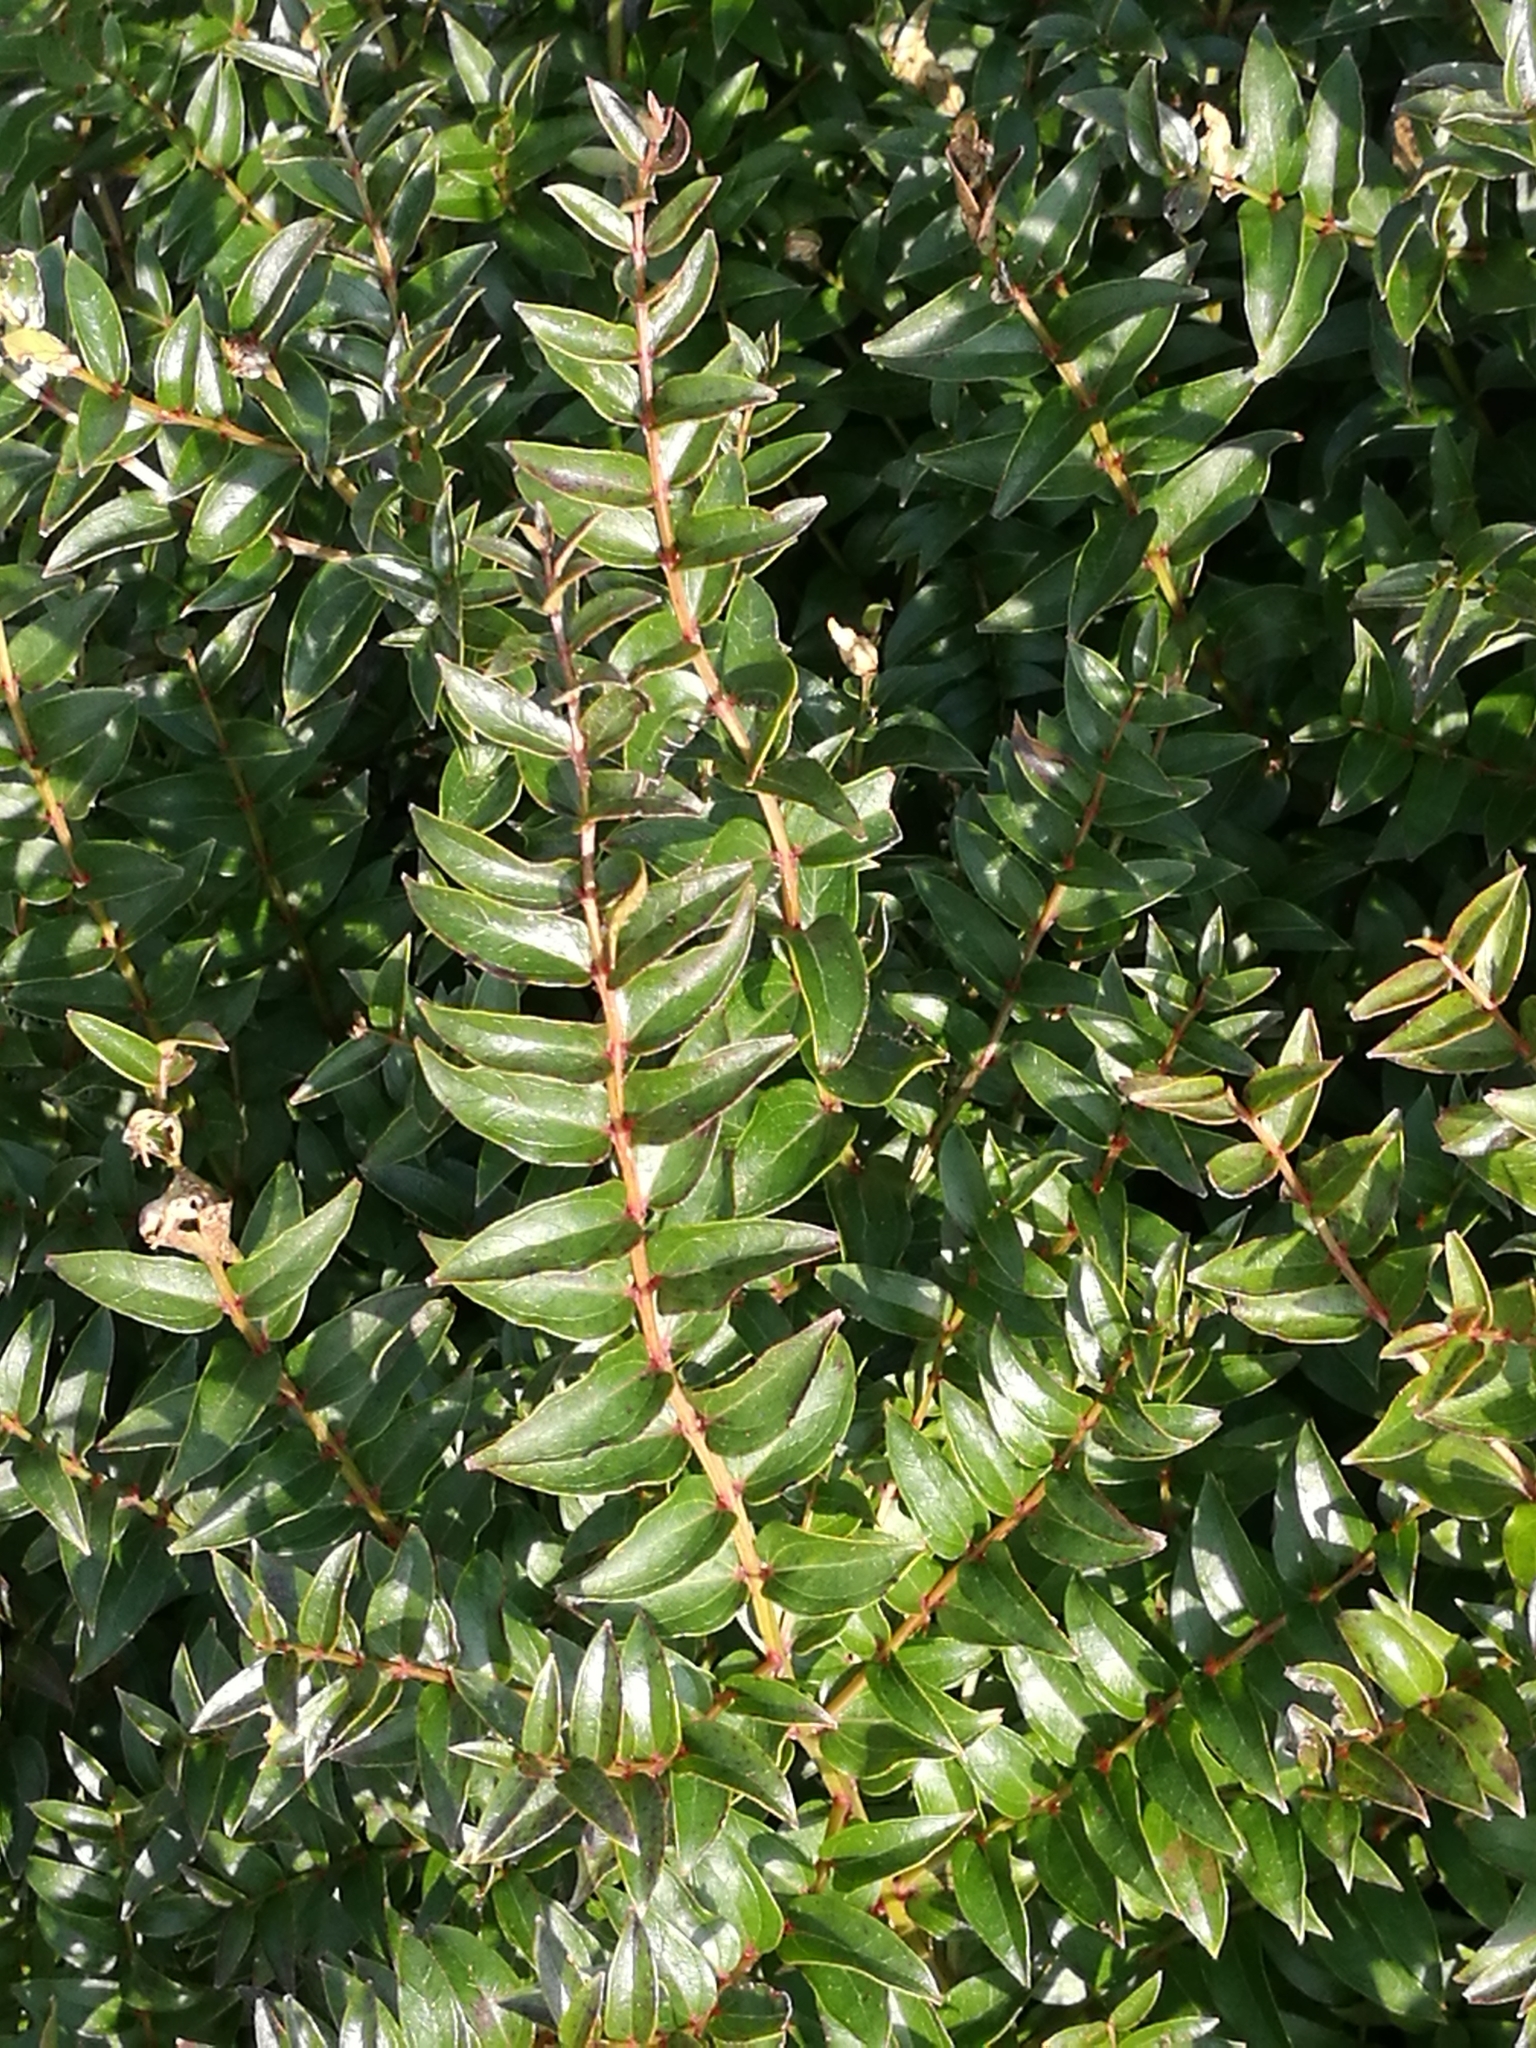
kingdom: Plantae
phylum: Tracheophyta
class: Magnoliopsida
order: Cucurbitales
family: Coriariaceae
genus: Coriaria
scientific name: Coriaria plumosa
